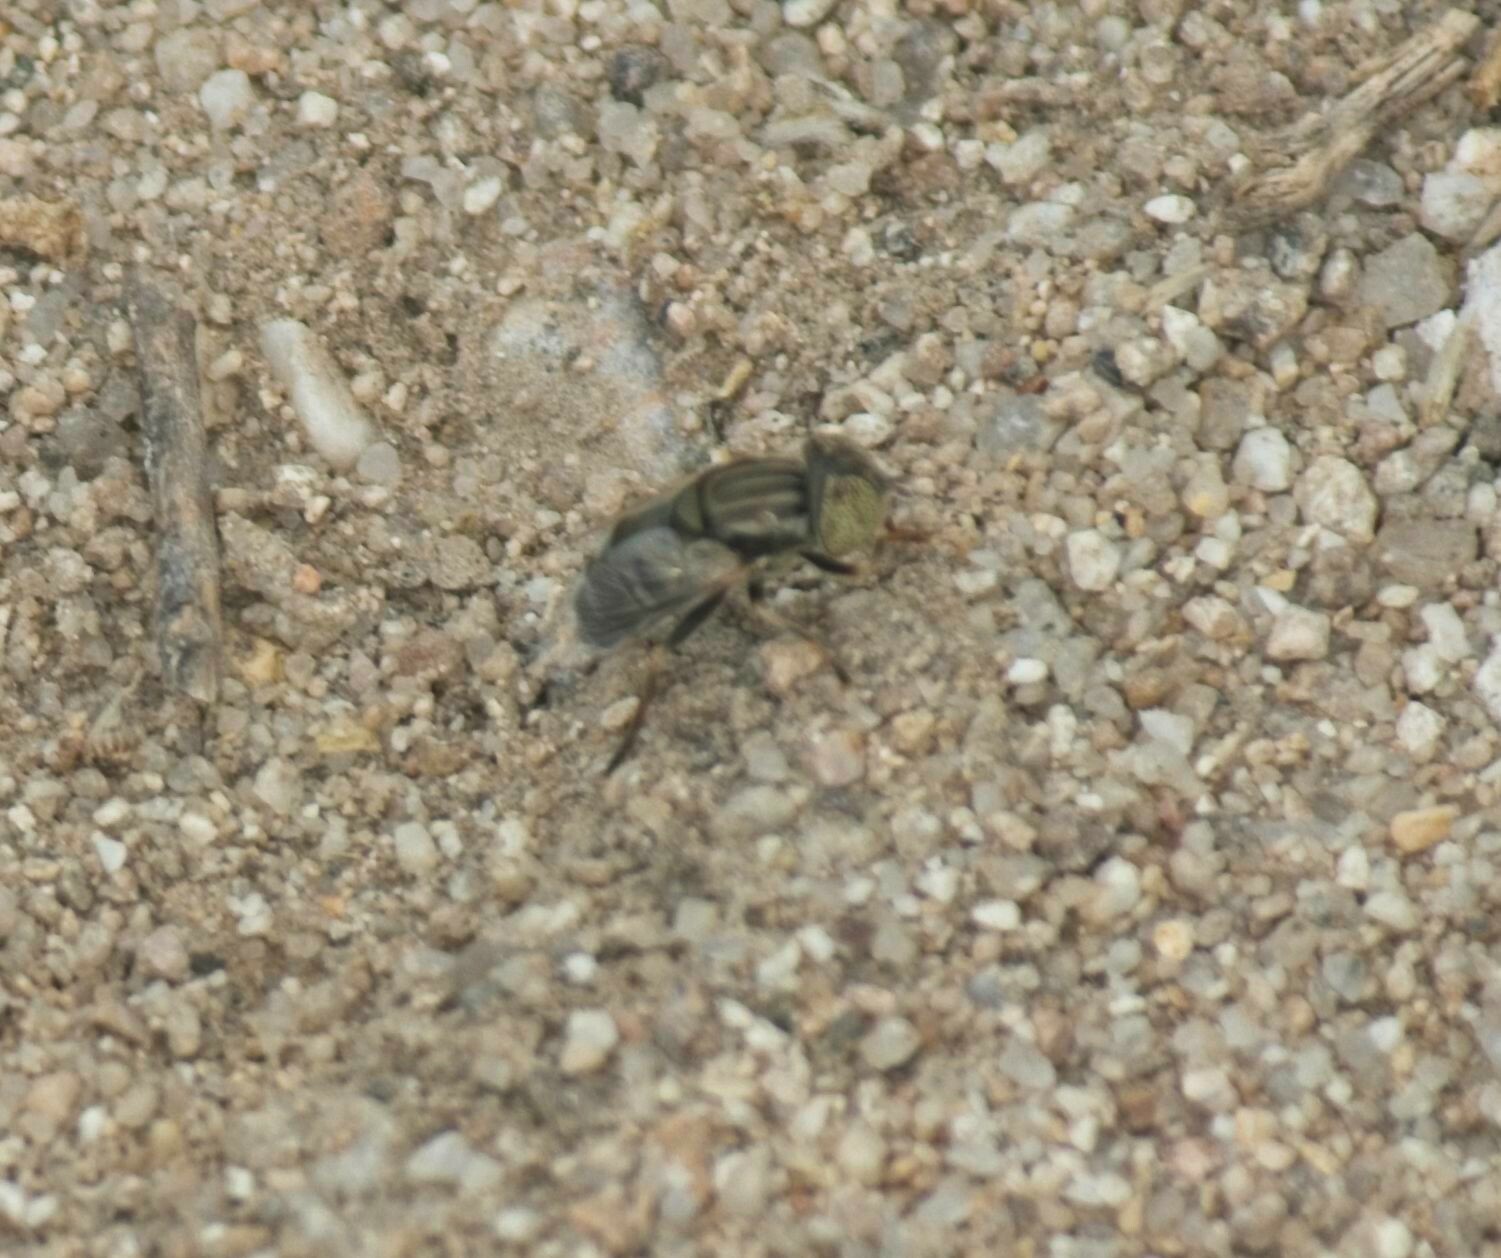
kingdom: Animalia
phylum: Arthropoda
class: Insecta
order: Diptera
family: Syrphidae
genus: Eristalinus
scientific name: Eristalinus aeneus
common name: Syrphid fly
